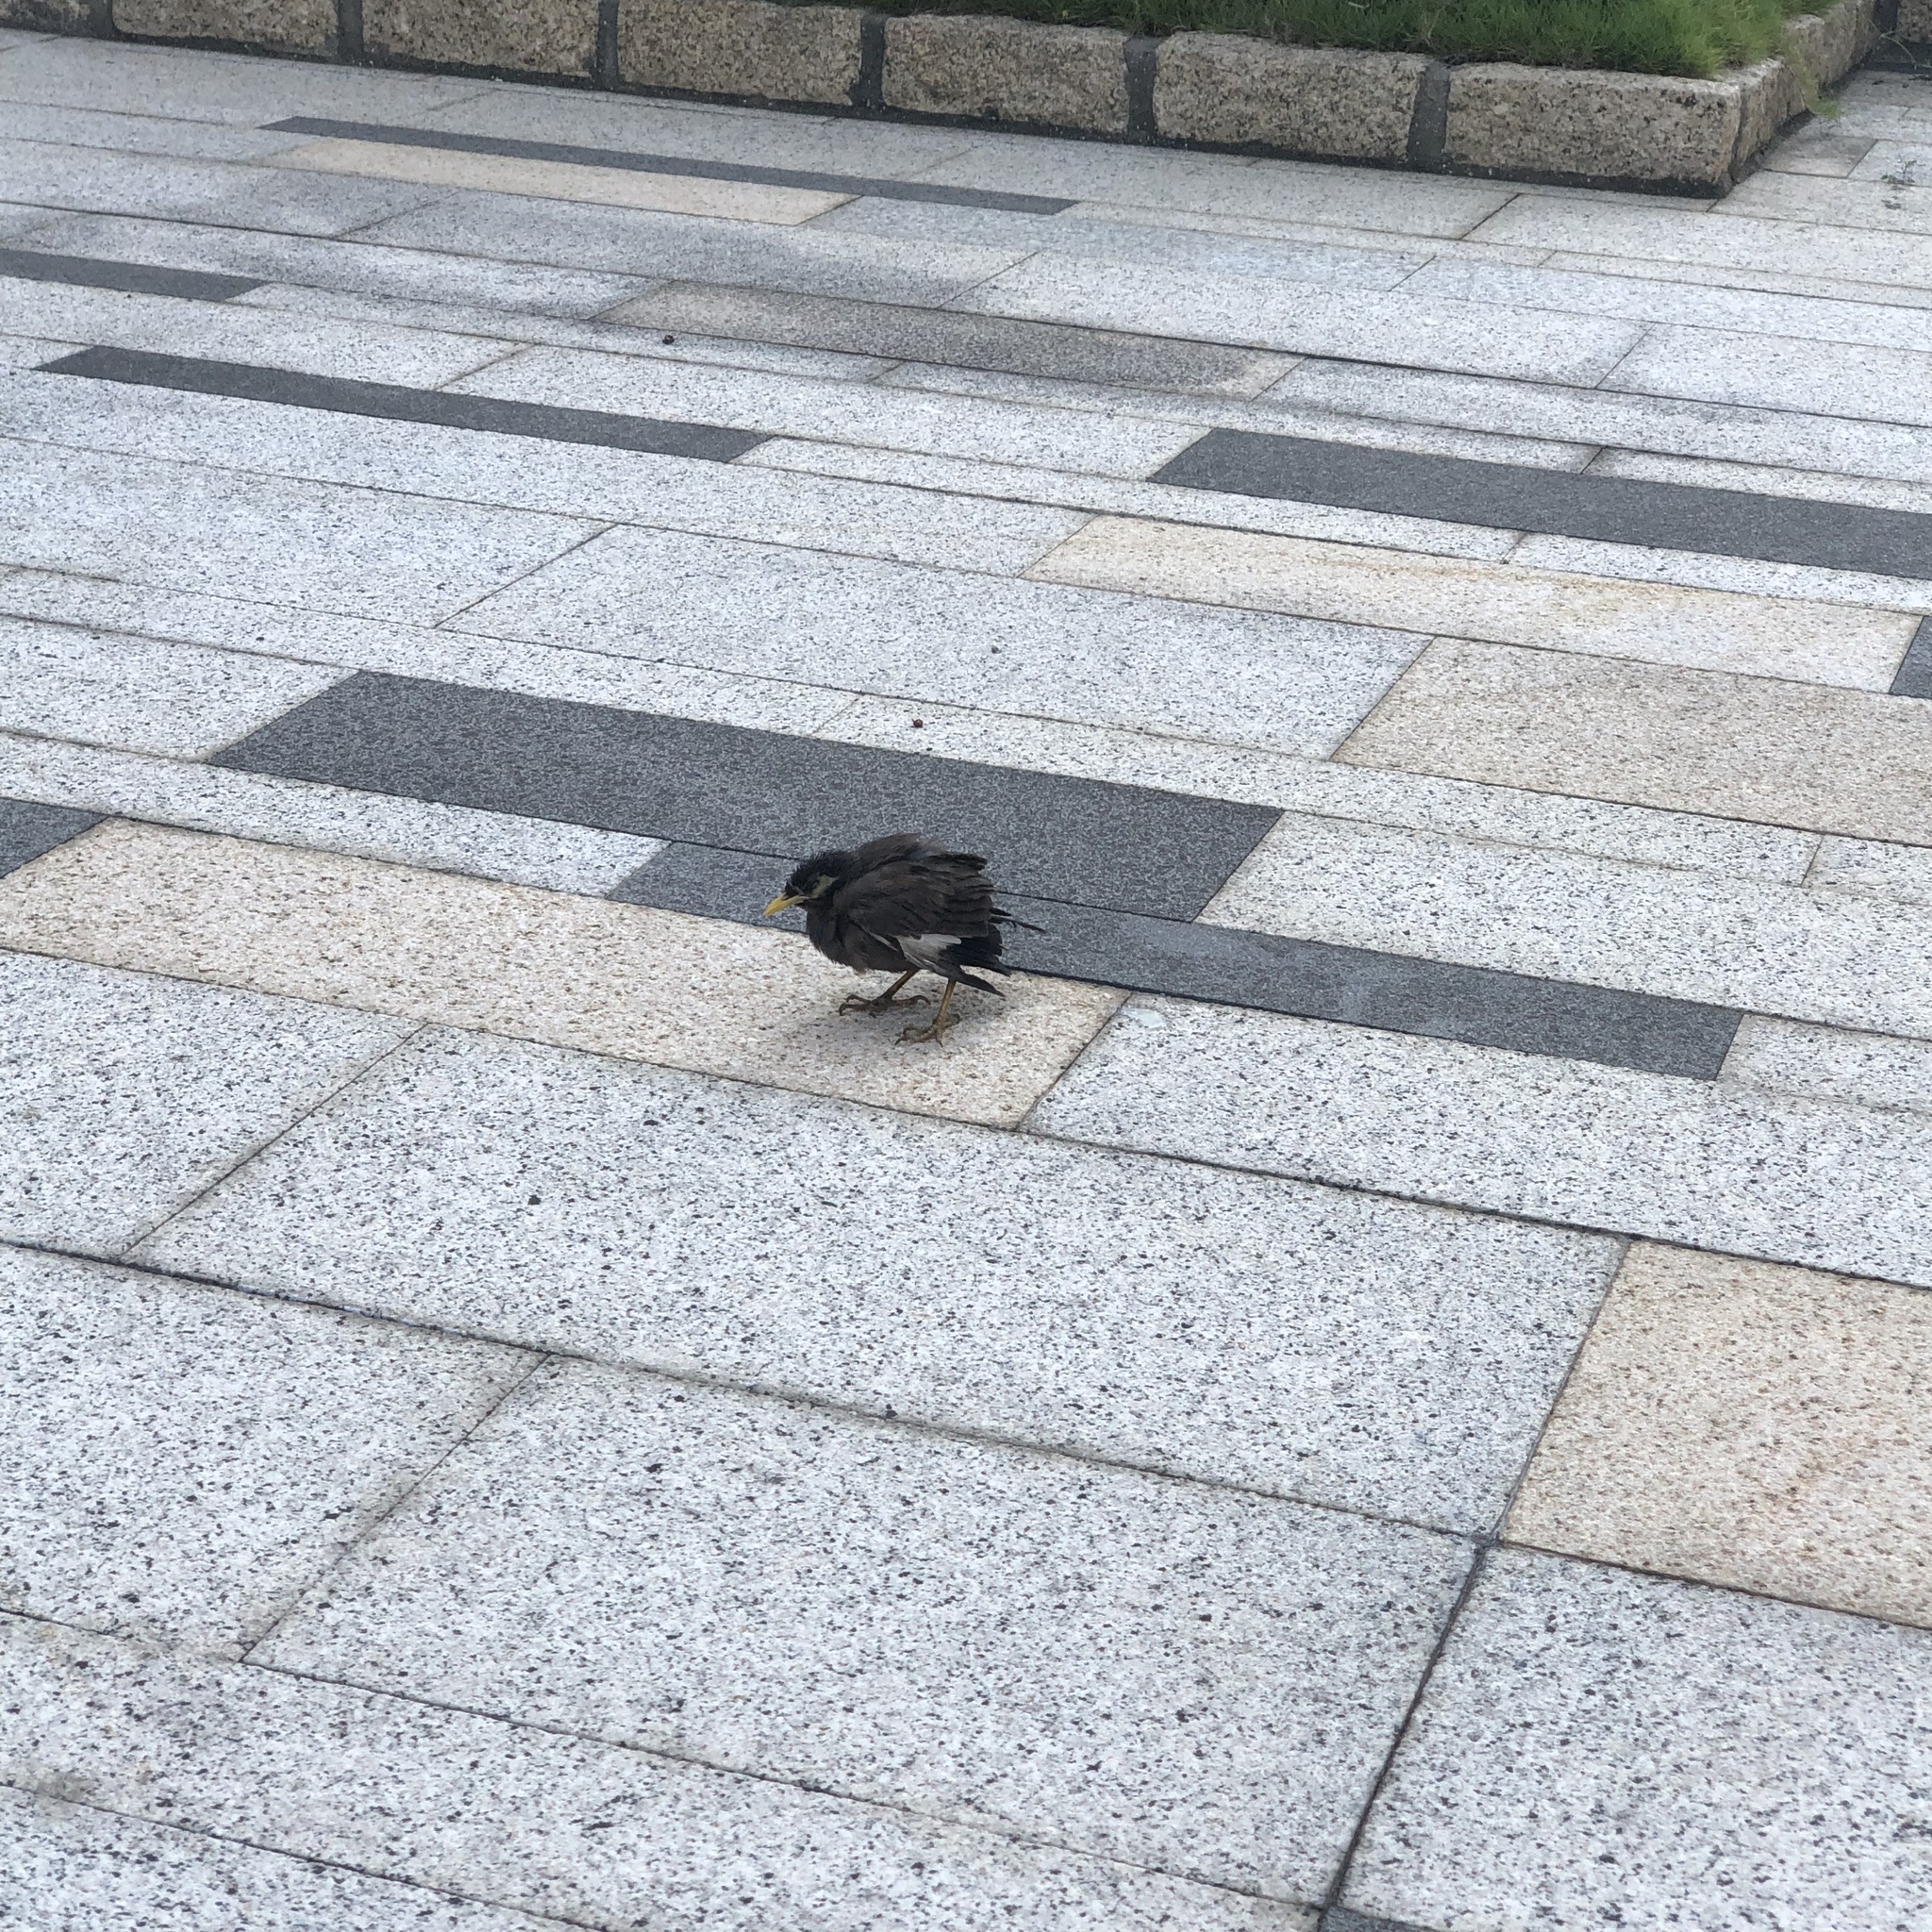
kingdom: Animalia
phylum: Chordata
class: Aves
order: Passeriformes
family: Sturnidae
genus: Acridotheres
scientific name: Acridotheres tristis
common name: Common myna
